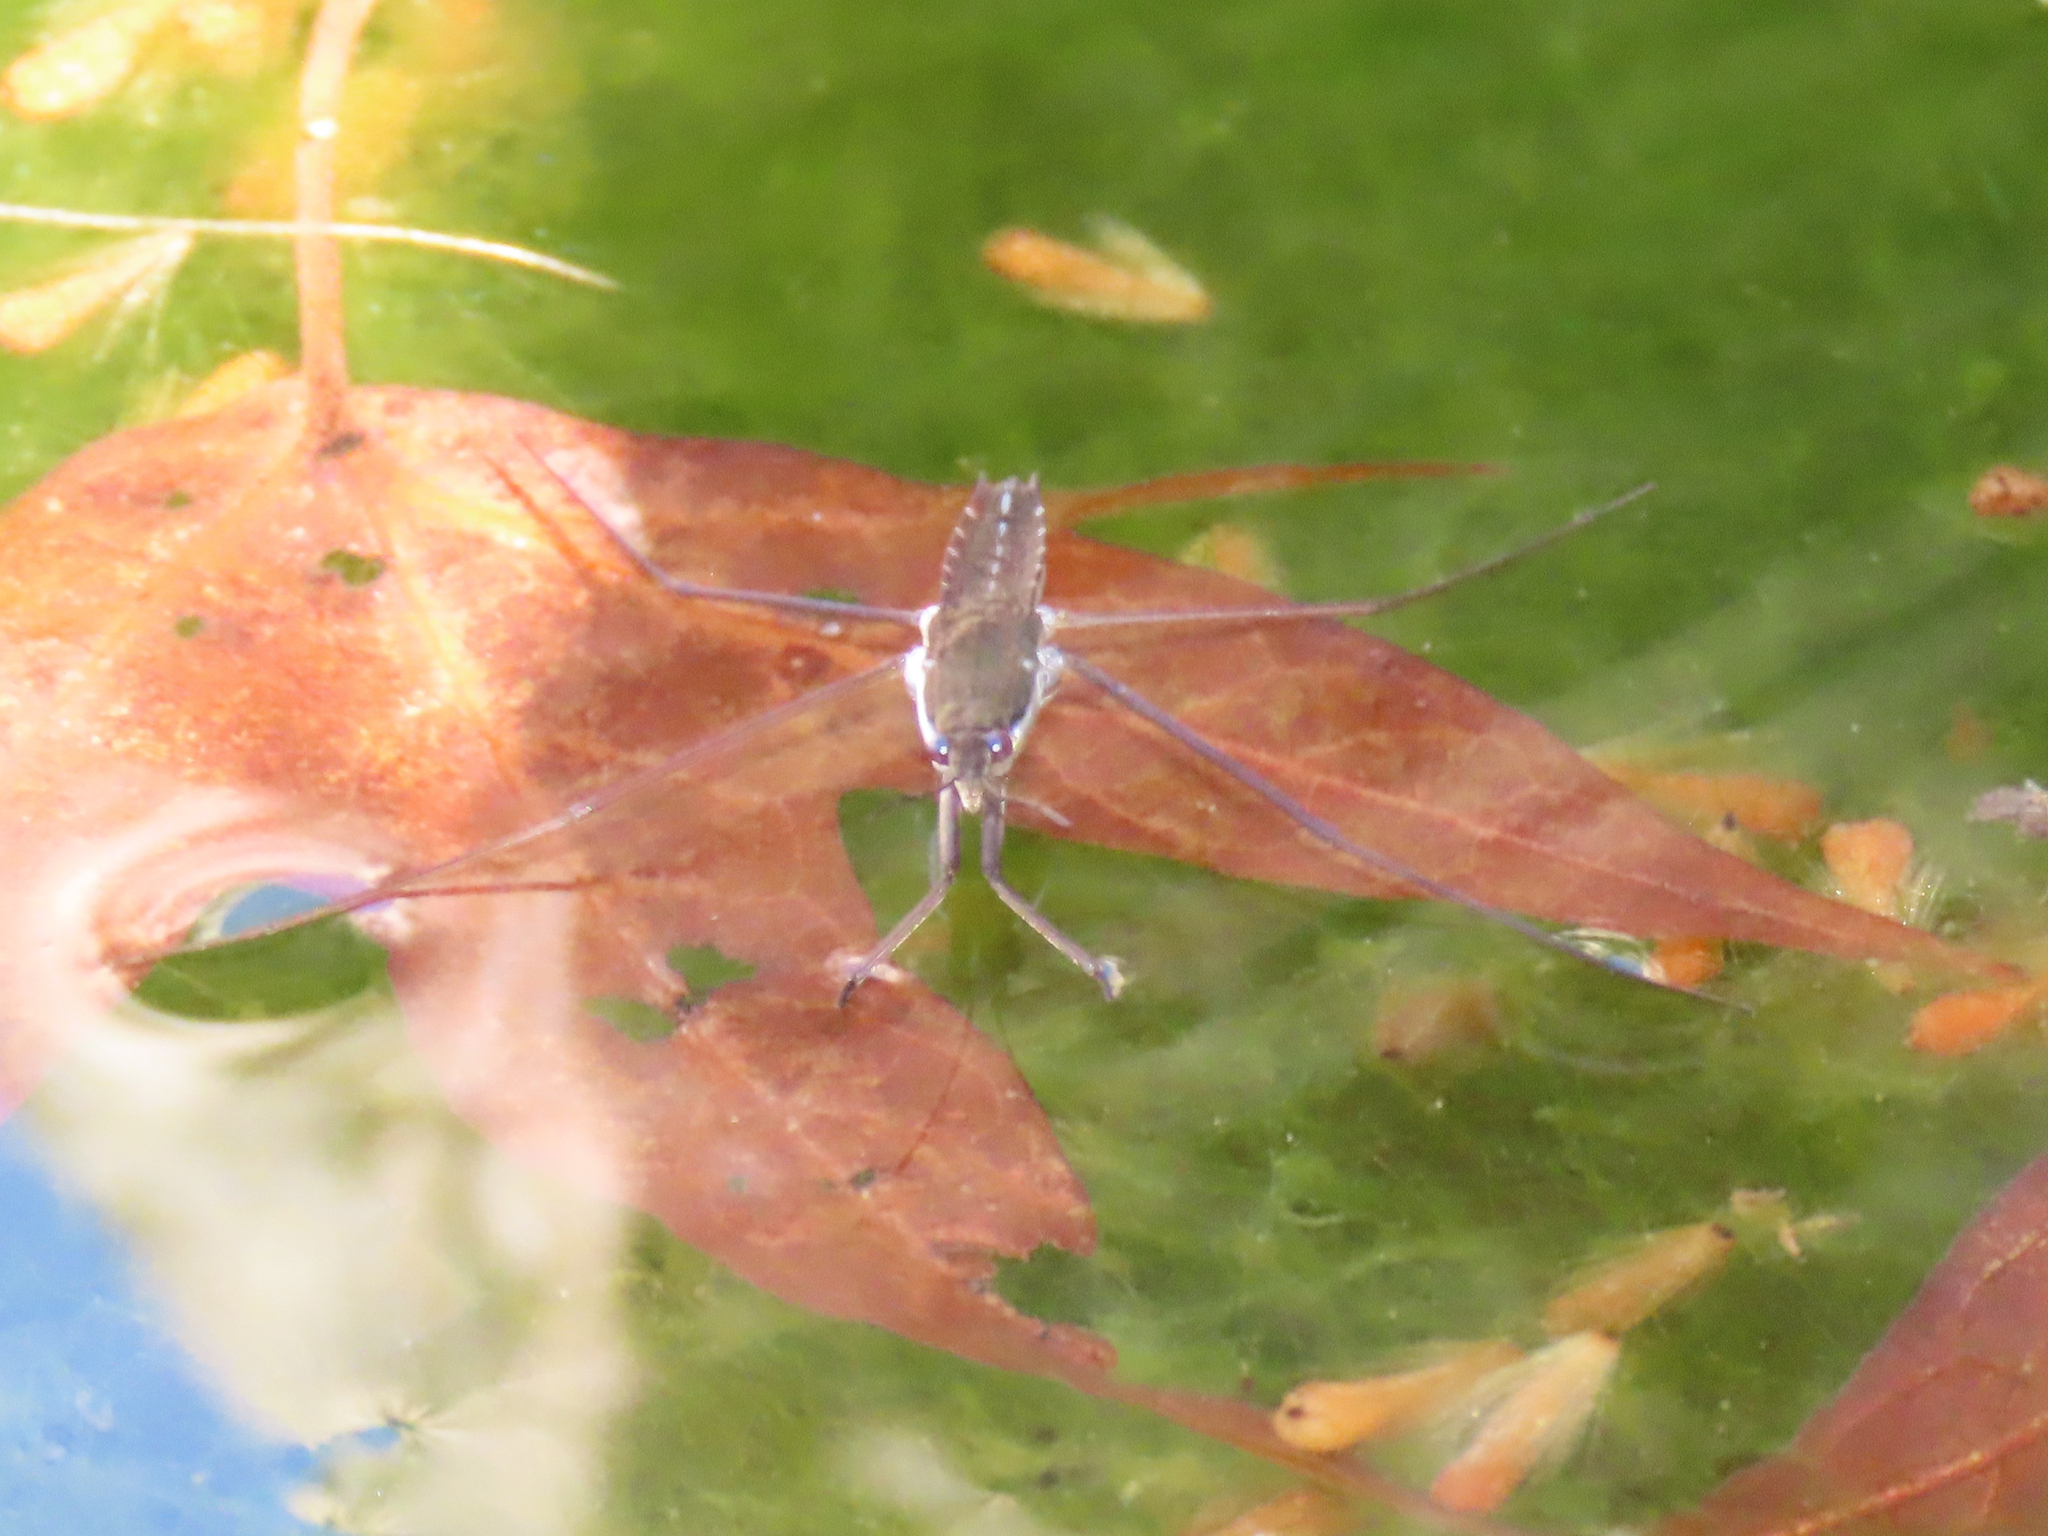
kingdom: Animalia
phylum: Arthropoda
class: Insecta
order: Hemiptera
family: Gerridae
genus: Aquarius
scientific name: Aquarius
